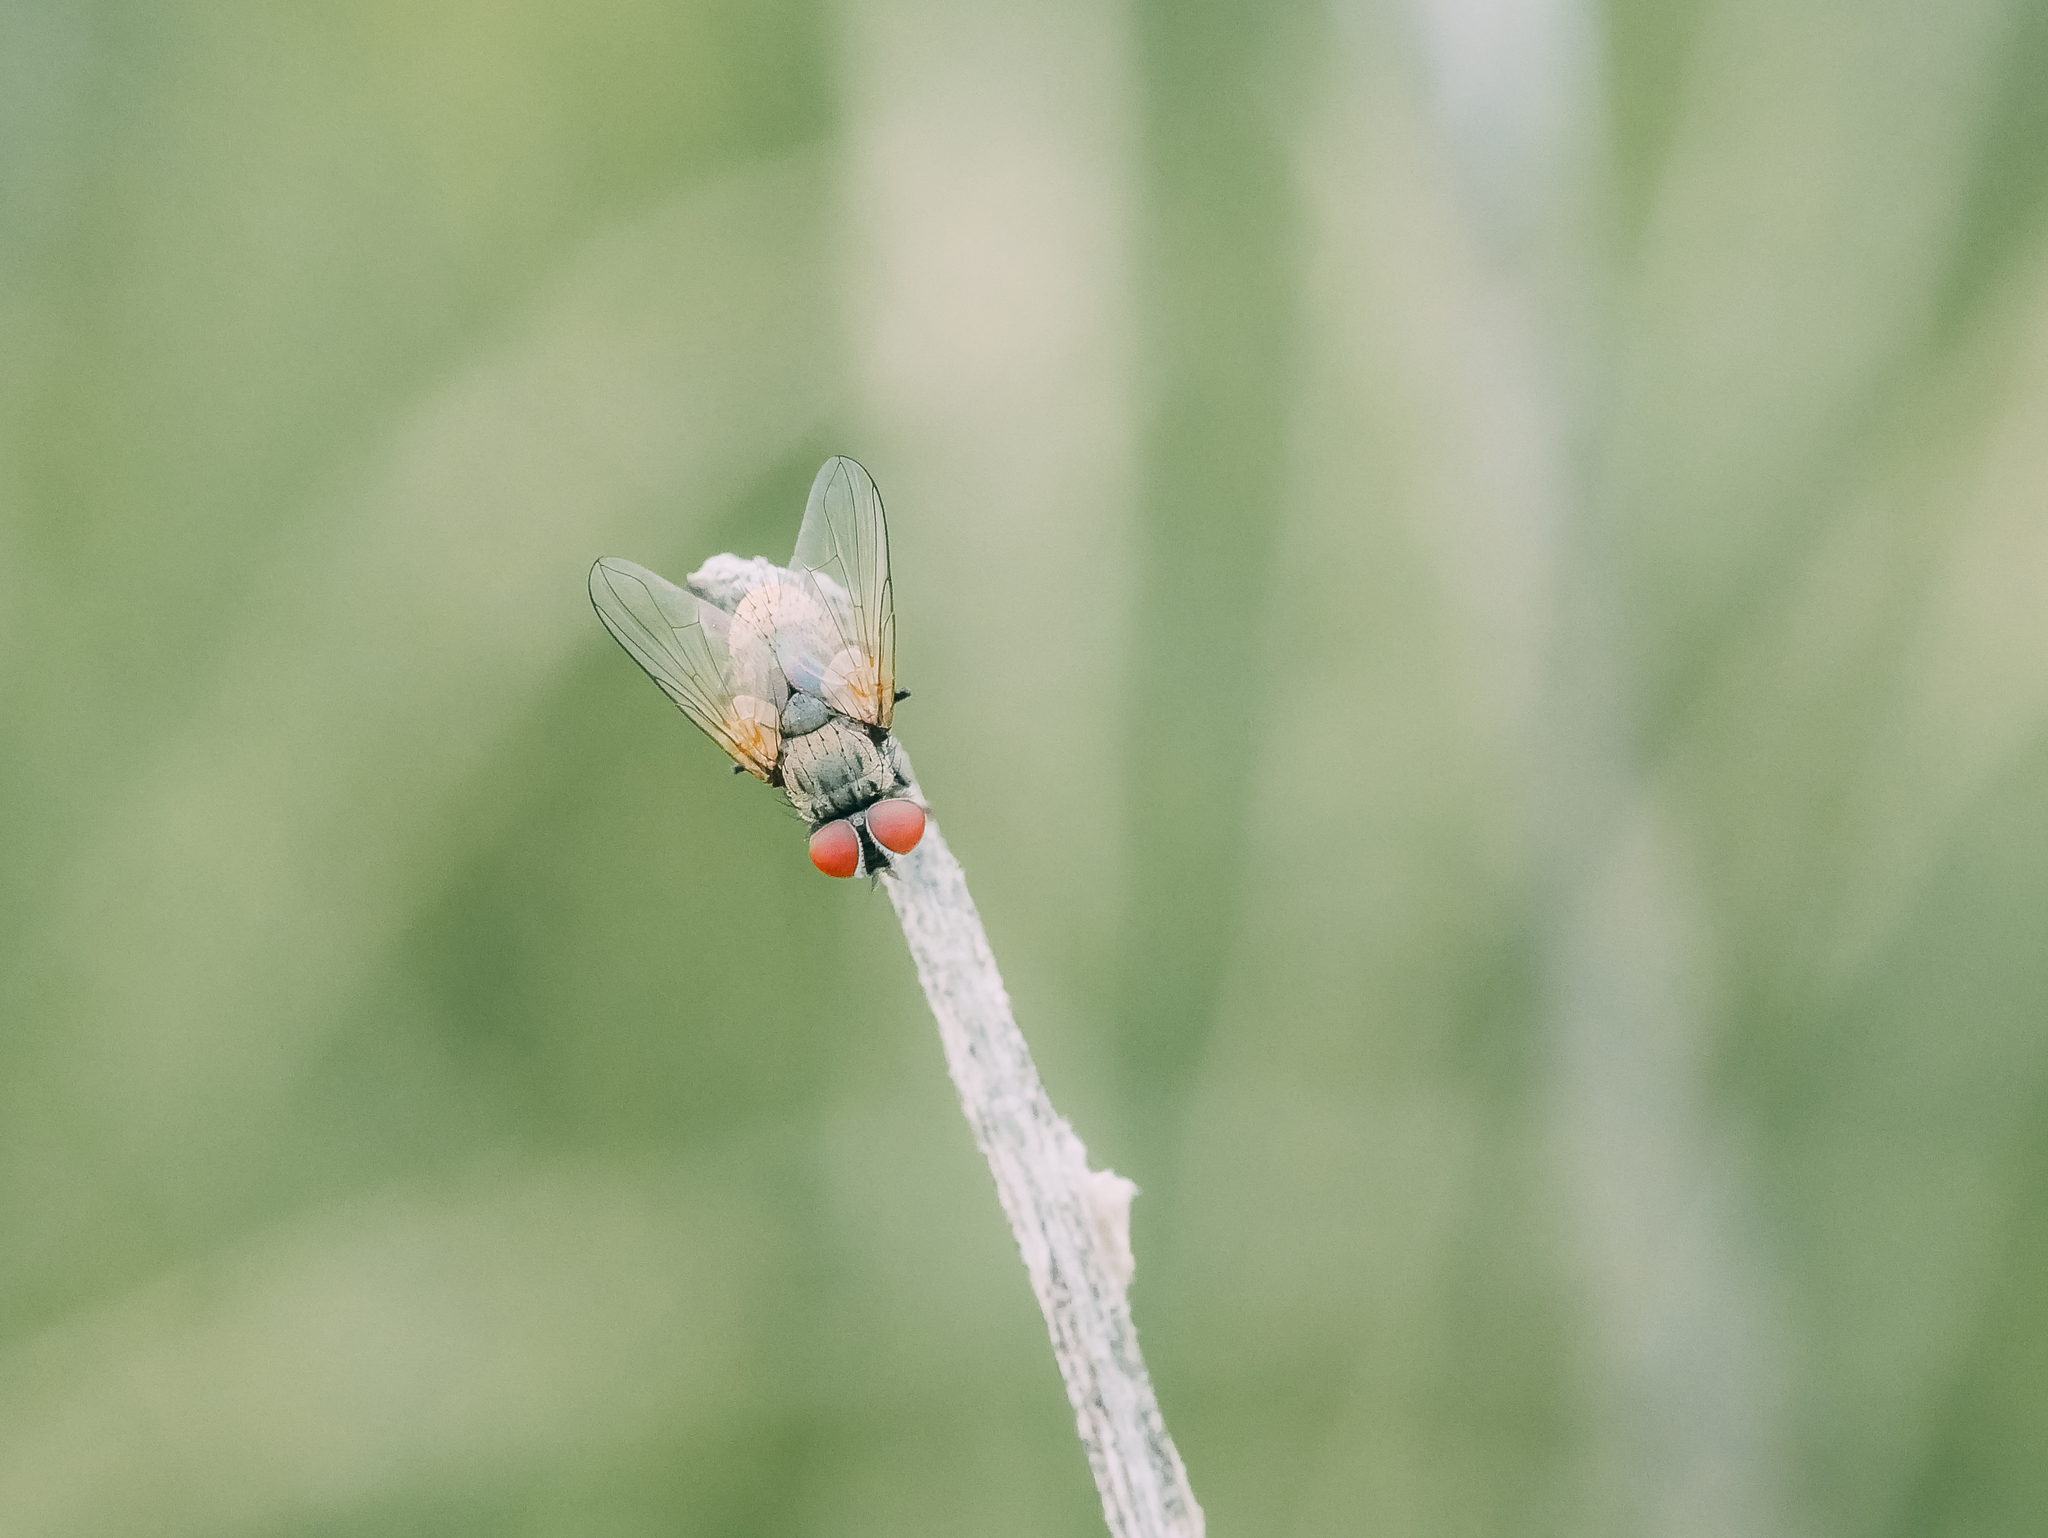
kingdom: Animalia
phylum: Arthropoda
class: Insecta
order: Diptera
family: Tachinidae
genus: Strongygaster
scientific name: Strongygaster globula
